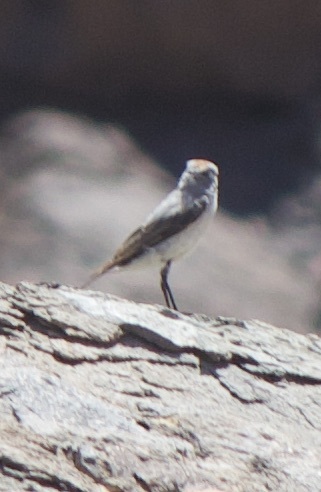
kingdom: Animalia
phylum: Chordata
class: Aves
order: Passeriformes
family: Tyrannidae
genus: Muscisaxicola
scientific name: Muscisaxicola rufivertex
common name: Rufous-naped ground tyrant
